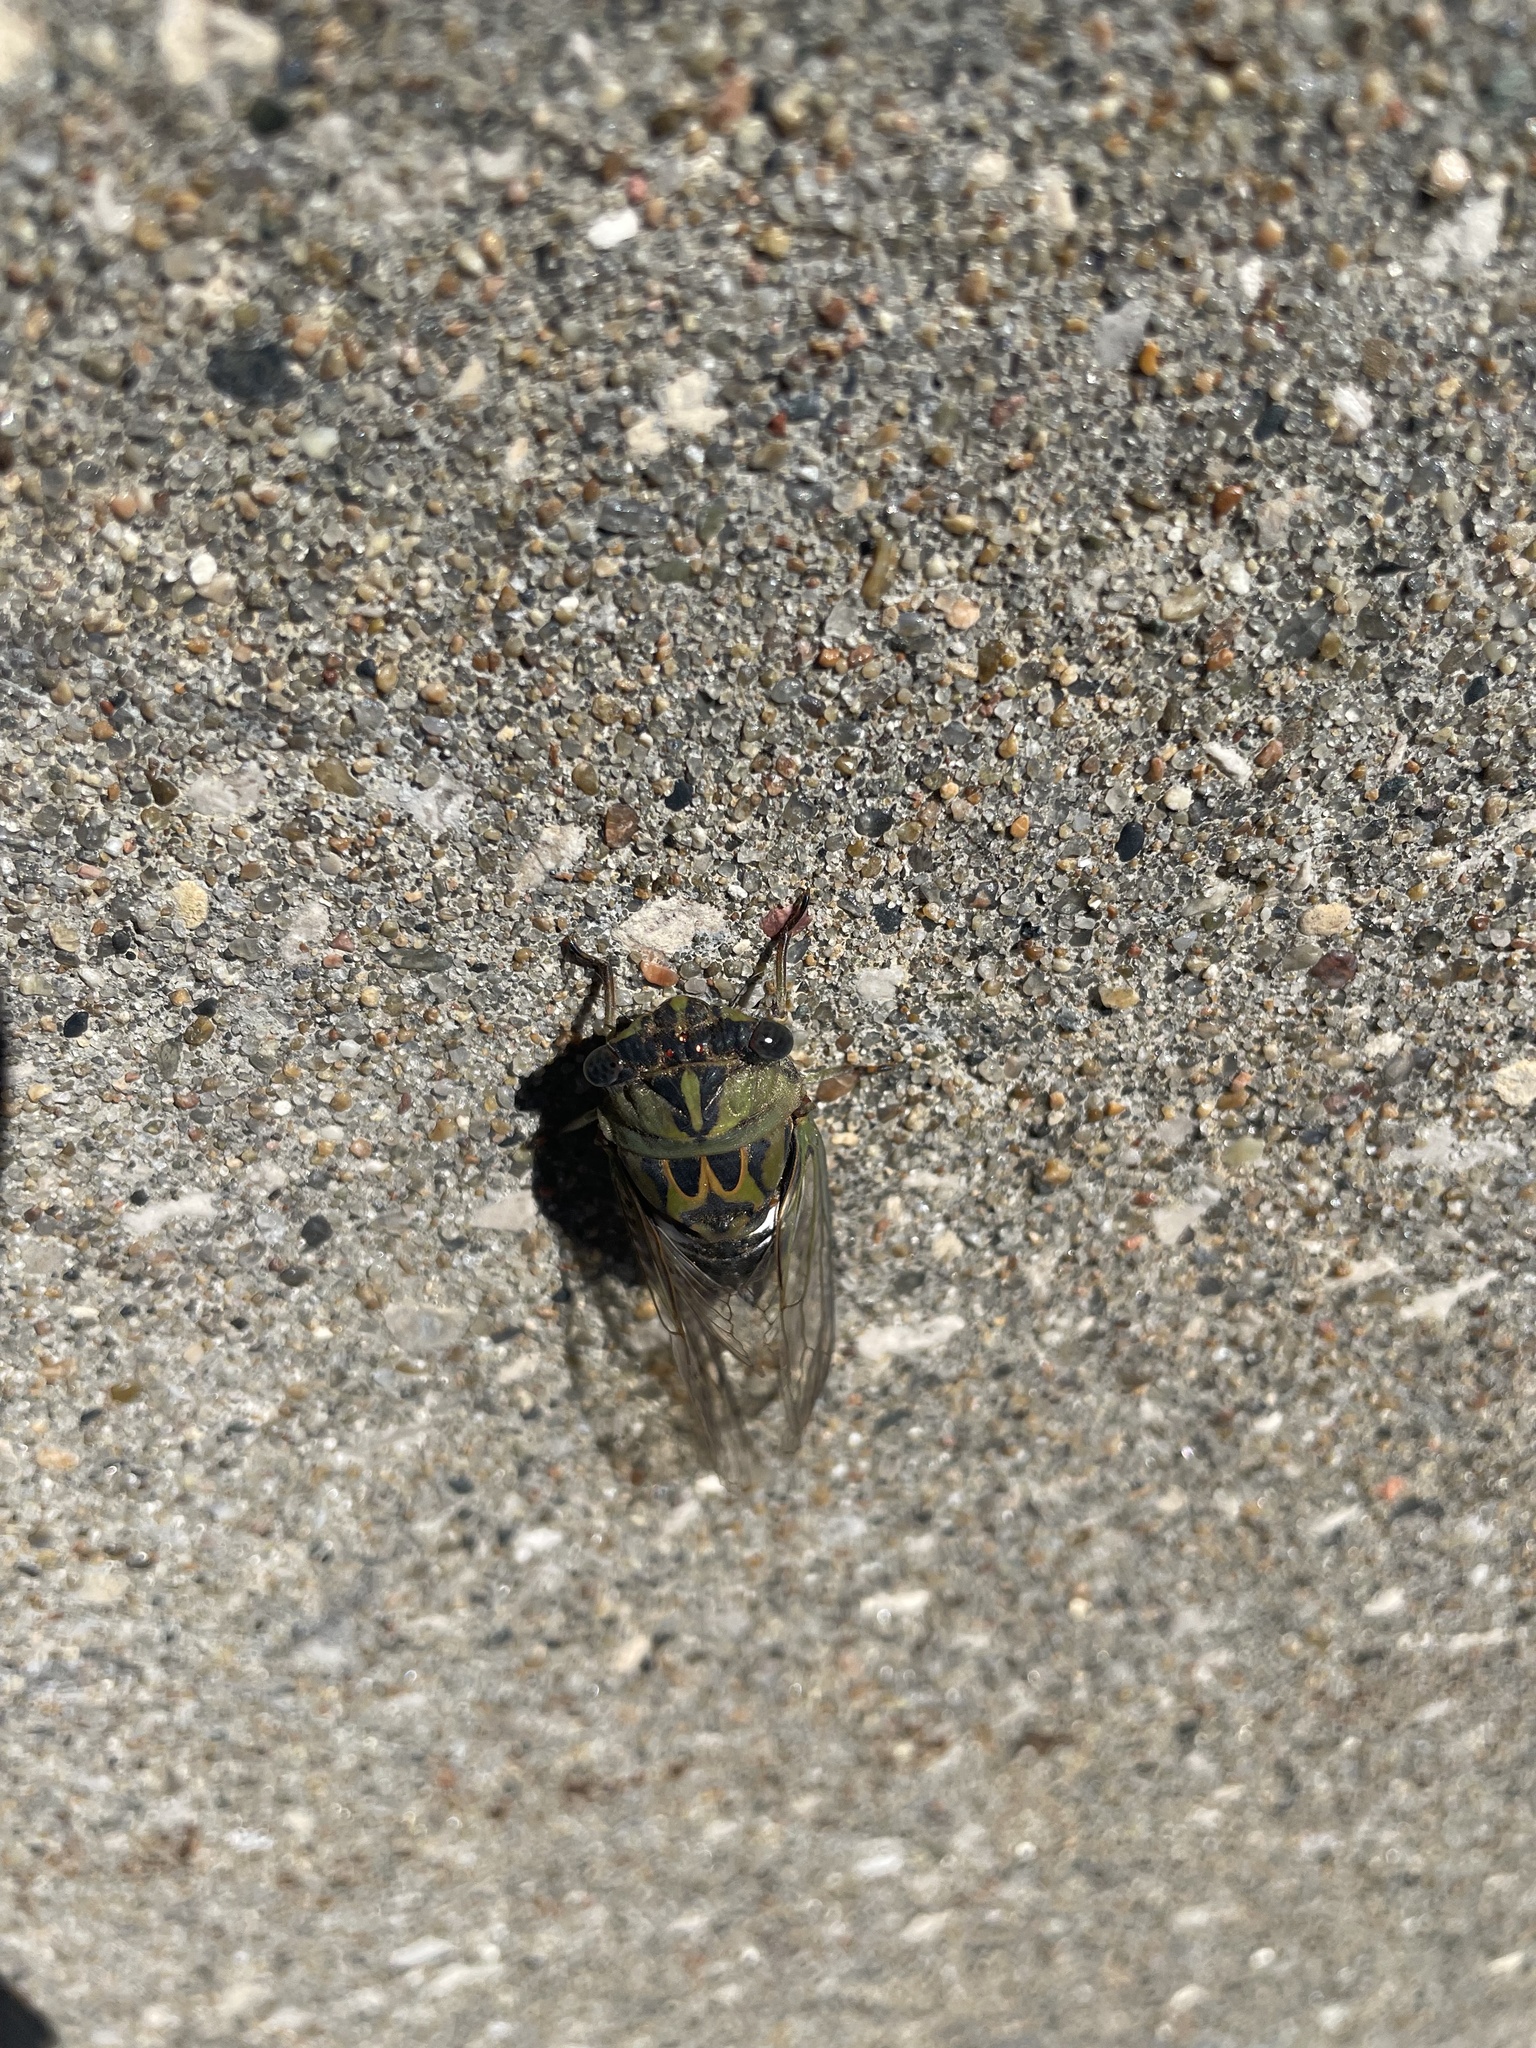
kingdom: Animalia
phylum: Arthropoda
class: Insecta
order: Hemiptera
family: Cicadidae
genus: Neotibicen
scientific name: Neotibicen pruinosus
